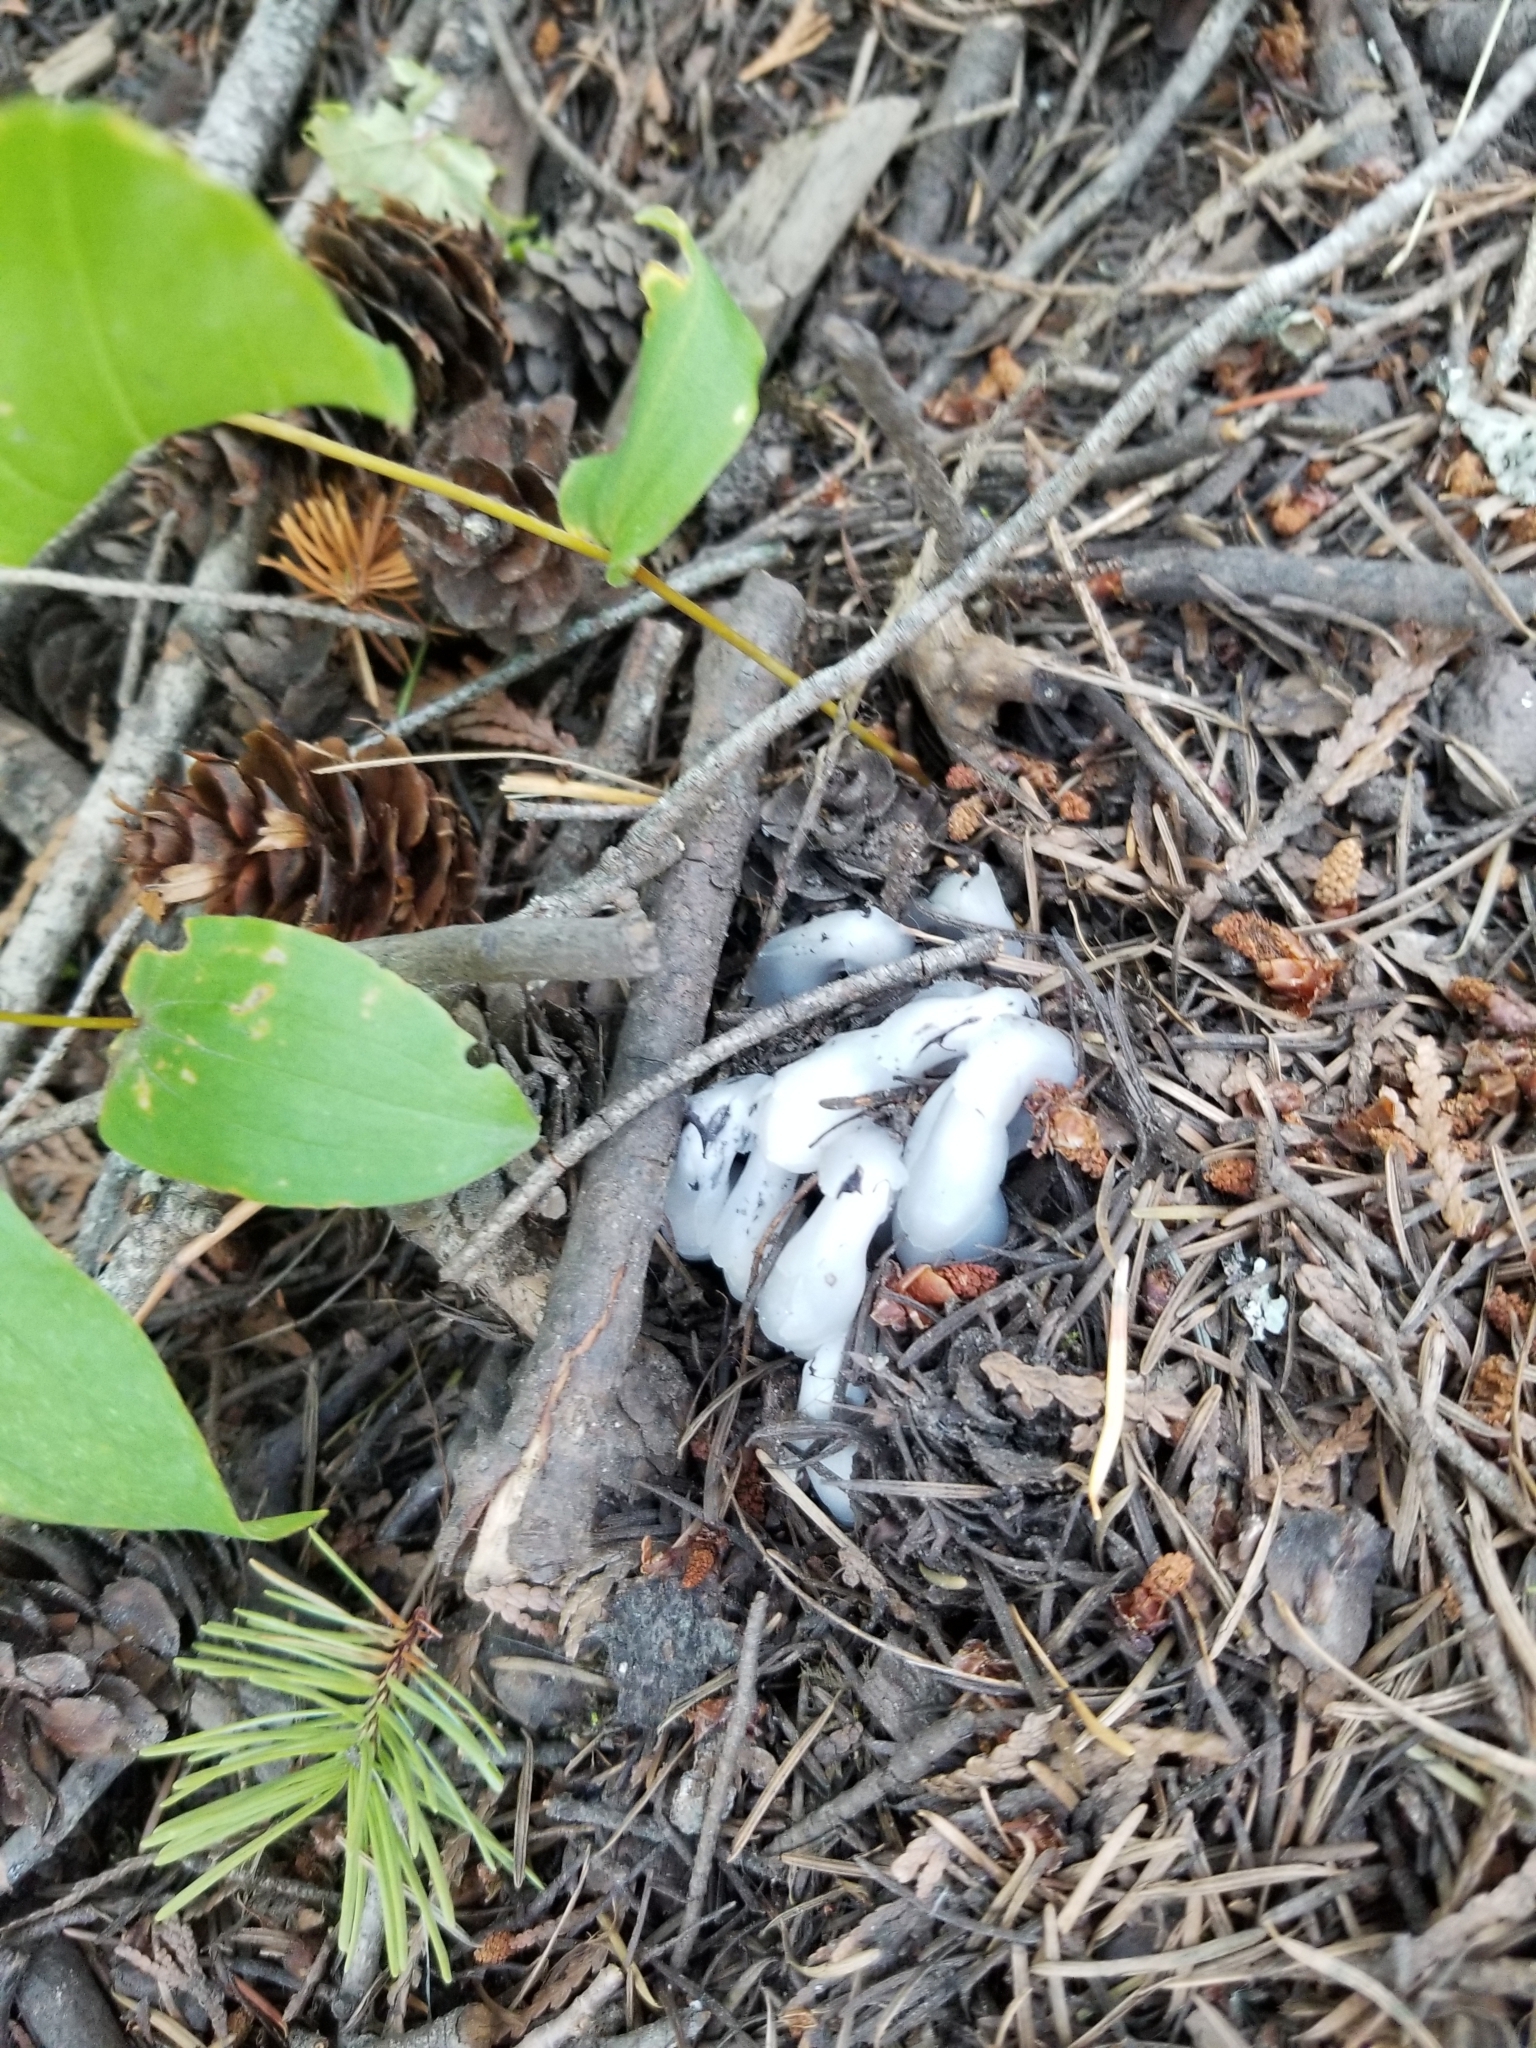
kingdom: Plantae
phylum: Tracheophyta
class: Magnoliopsida
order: Ericales
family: Ericaceae
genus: Monotropa
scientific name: Monotropa uniflora
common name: Convulsion root
